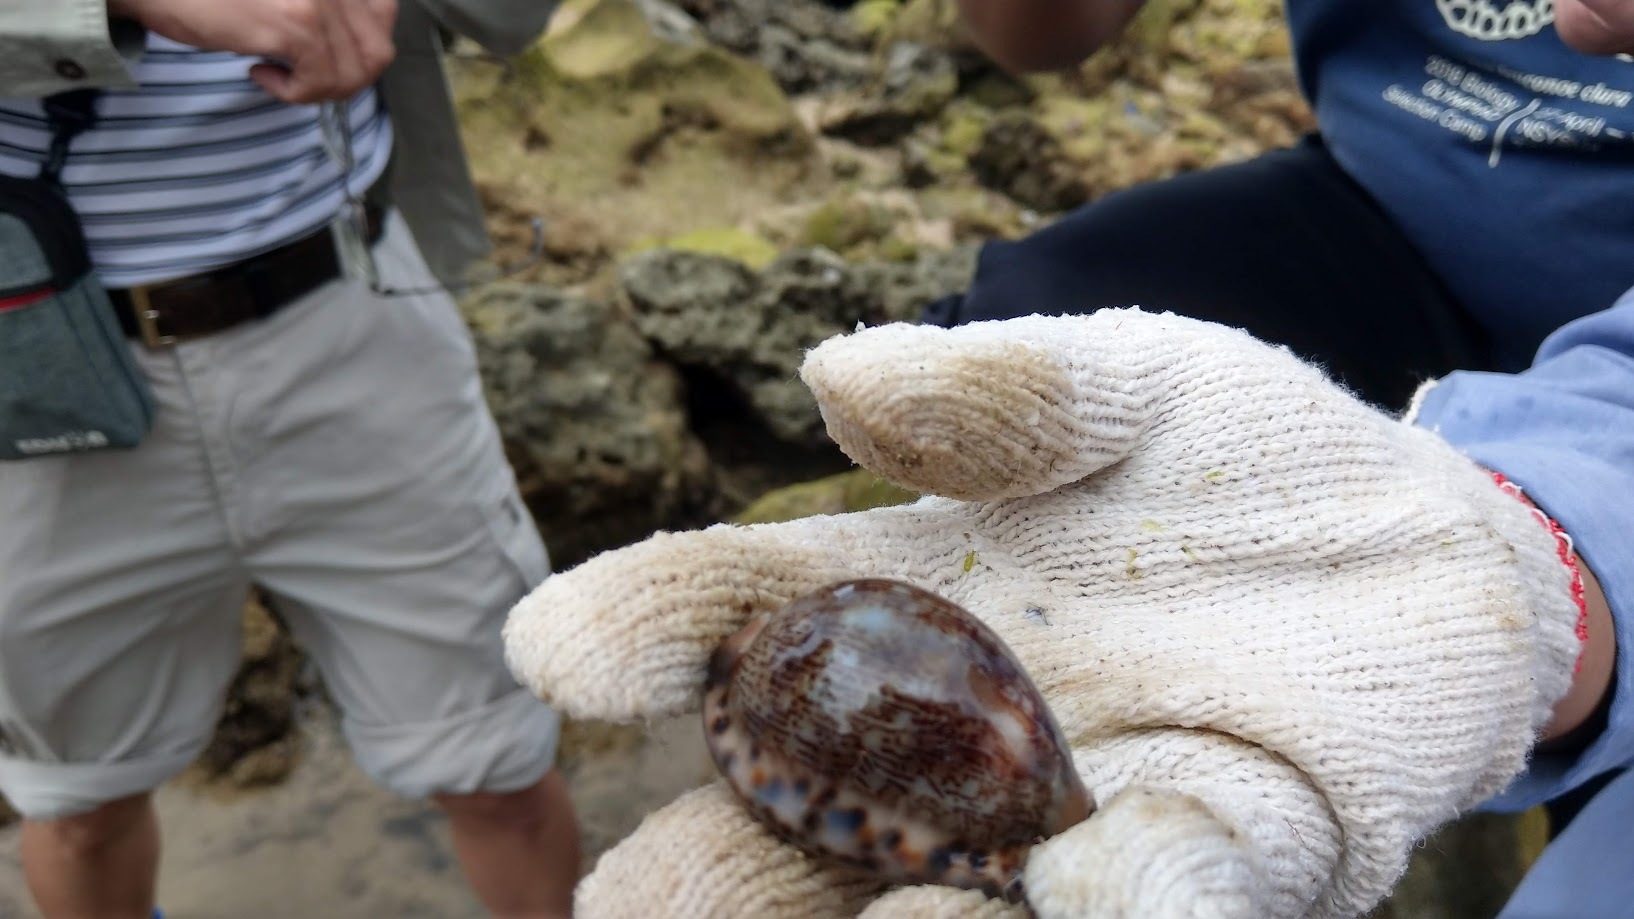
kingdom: Animalia
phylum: Mollusca
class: Gastropoda
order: Littorinimorpha
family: Cypraeidae
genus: Mauritia
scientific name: Mauritia arabica
